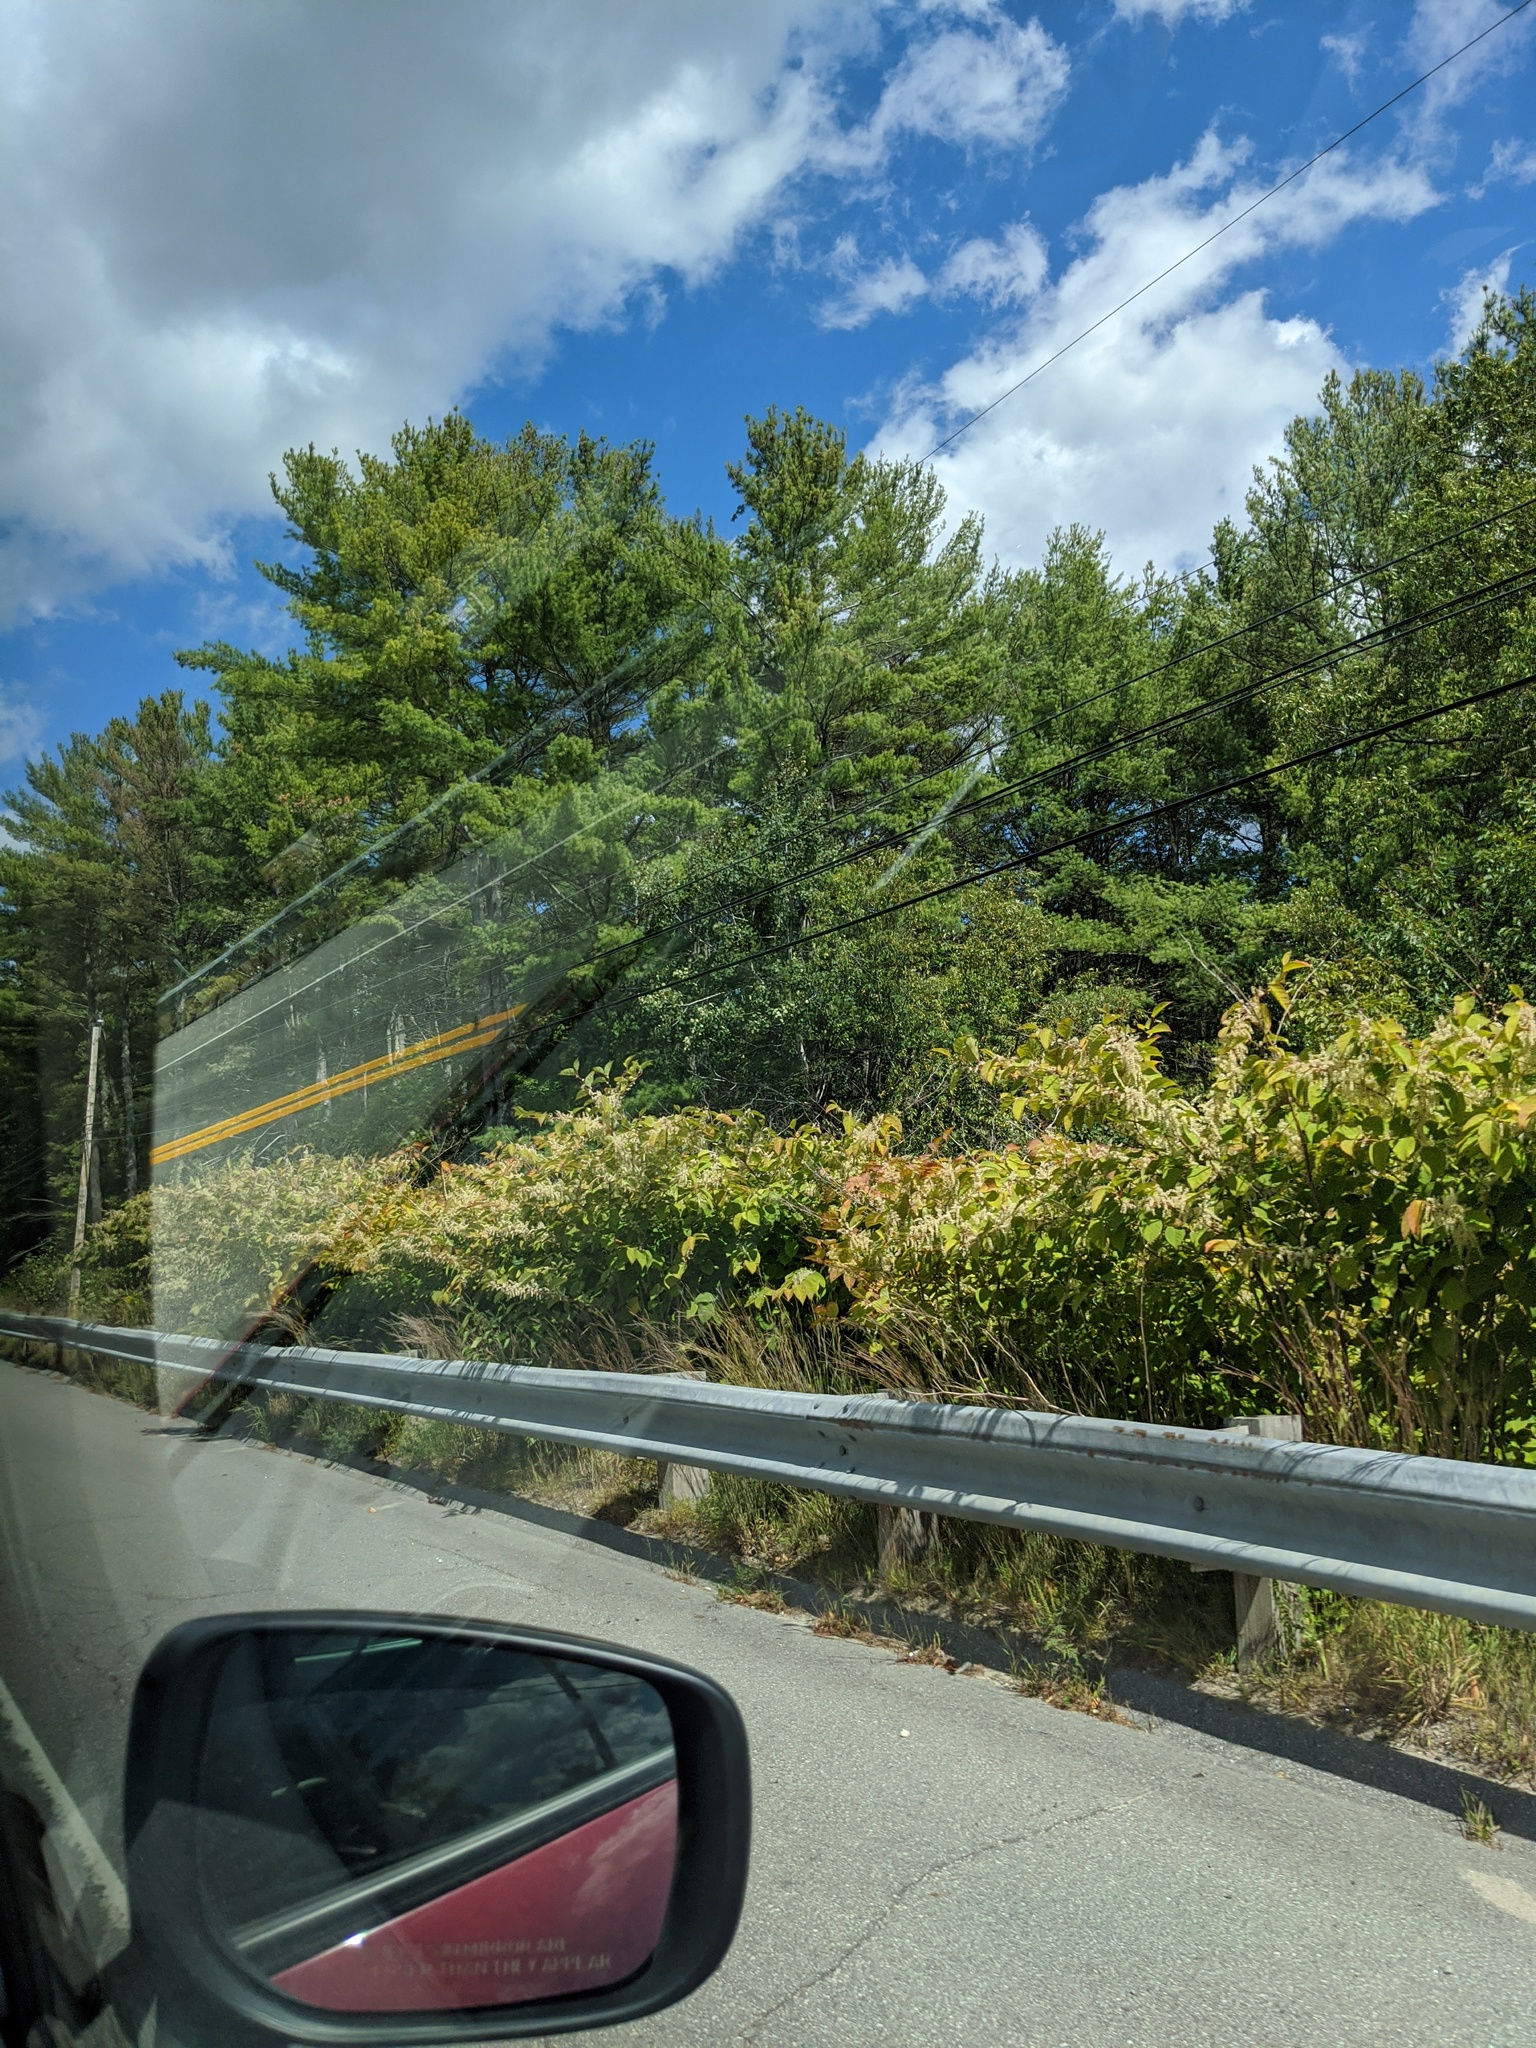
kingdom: Plantae
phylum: Tracheophyta
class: Magnoliopsida
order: Caryophyllales
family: Polygonaceae
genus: Reynoutria
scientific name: Reynoutria japonica
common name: Japanese knotweed
